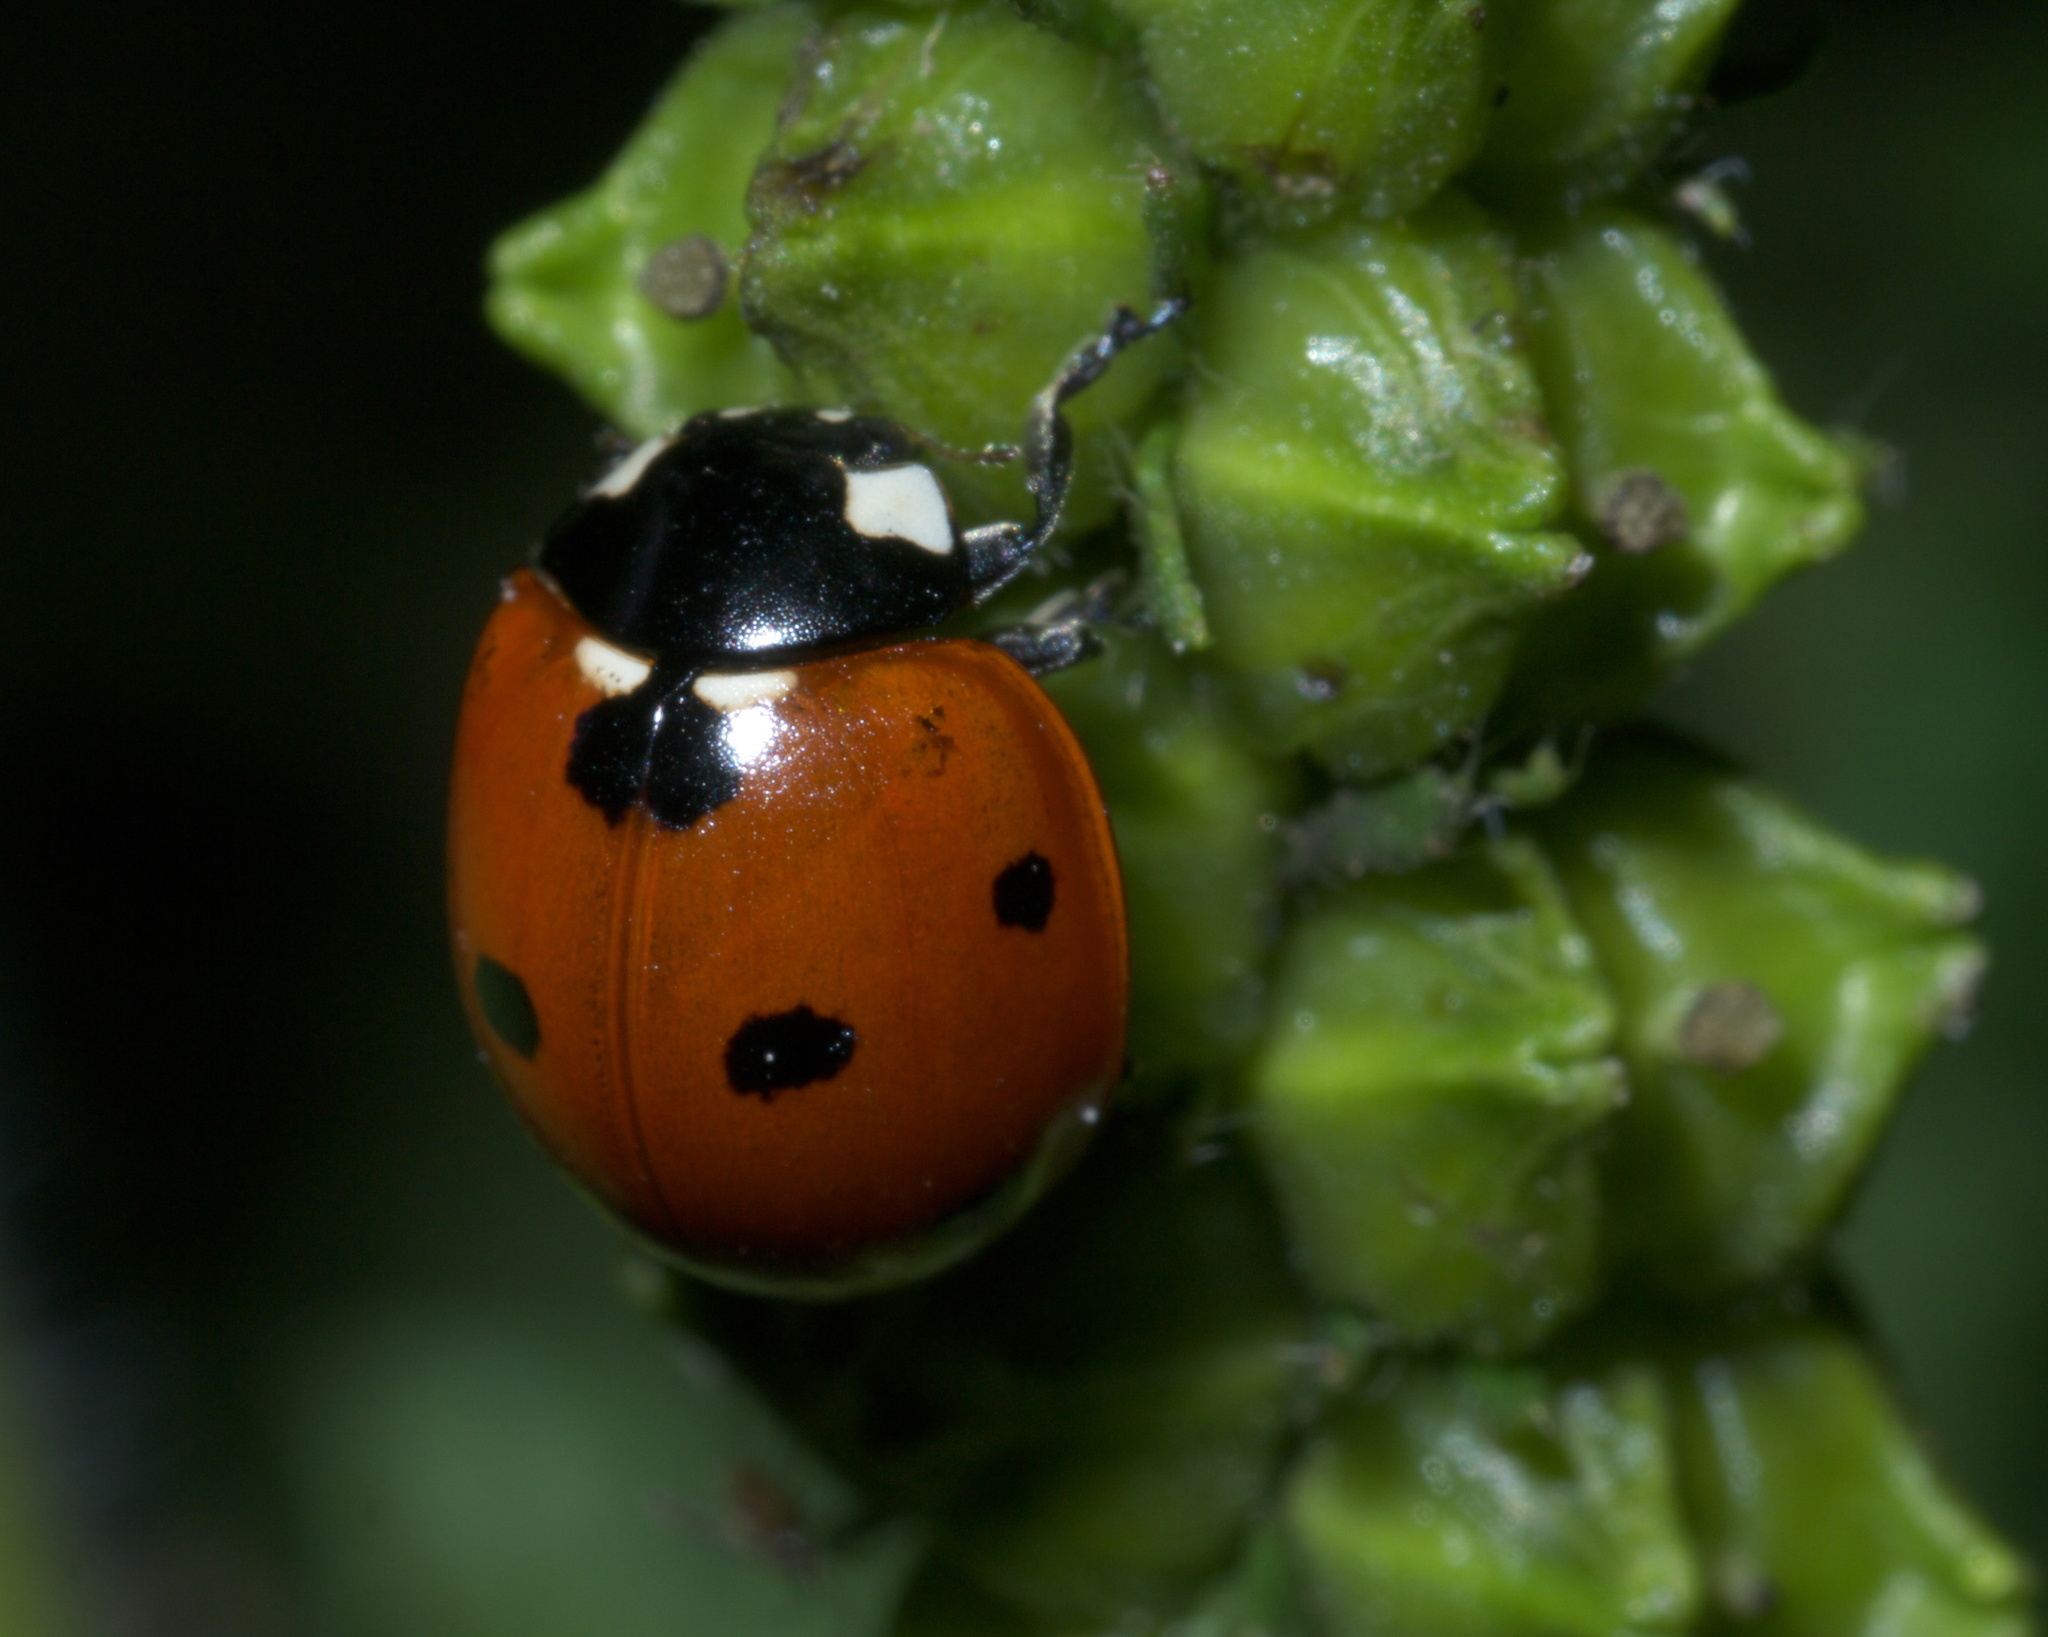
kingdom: Animalia
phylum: Arthropoda
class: Insecta
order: Coleoptera
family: Coccinellidae
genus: Coccinella
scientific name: Coccinella septempunctata
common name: Sevenspotted lady beetle
